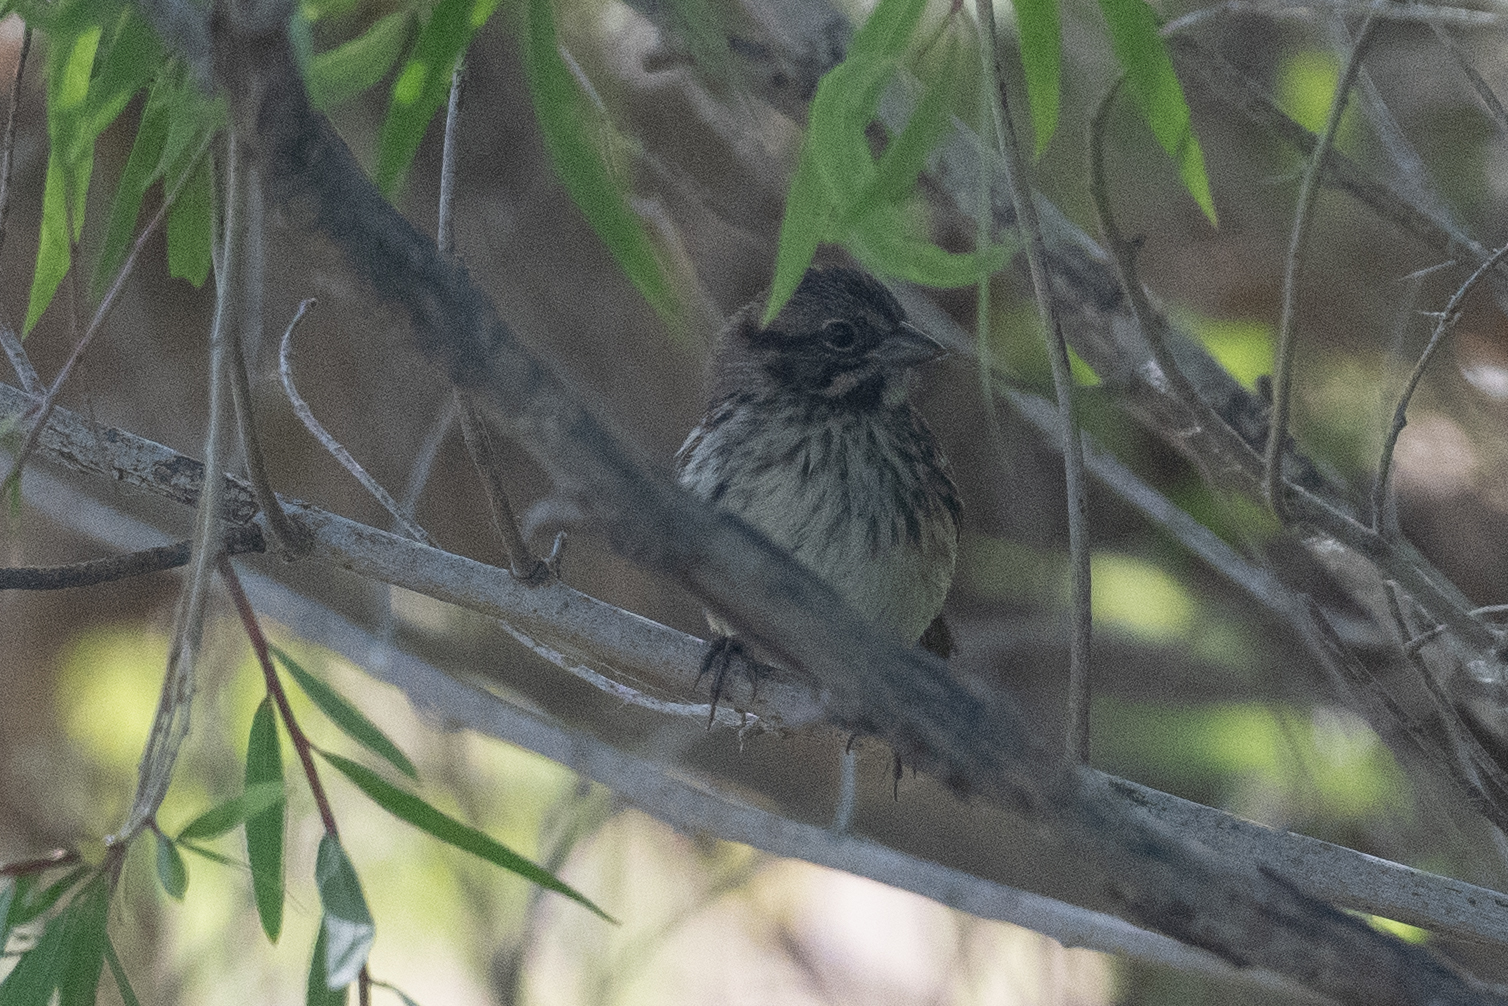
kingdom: Animalia
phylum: Chordata
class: Aves
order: Passeriformes
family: Passerellidae
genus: Melospiza
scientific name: Melospiza melodia
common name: Song sparrow
